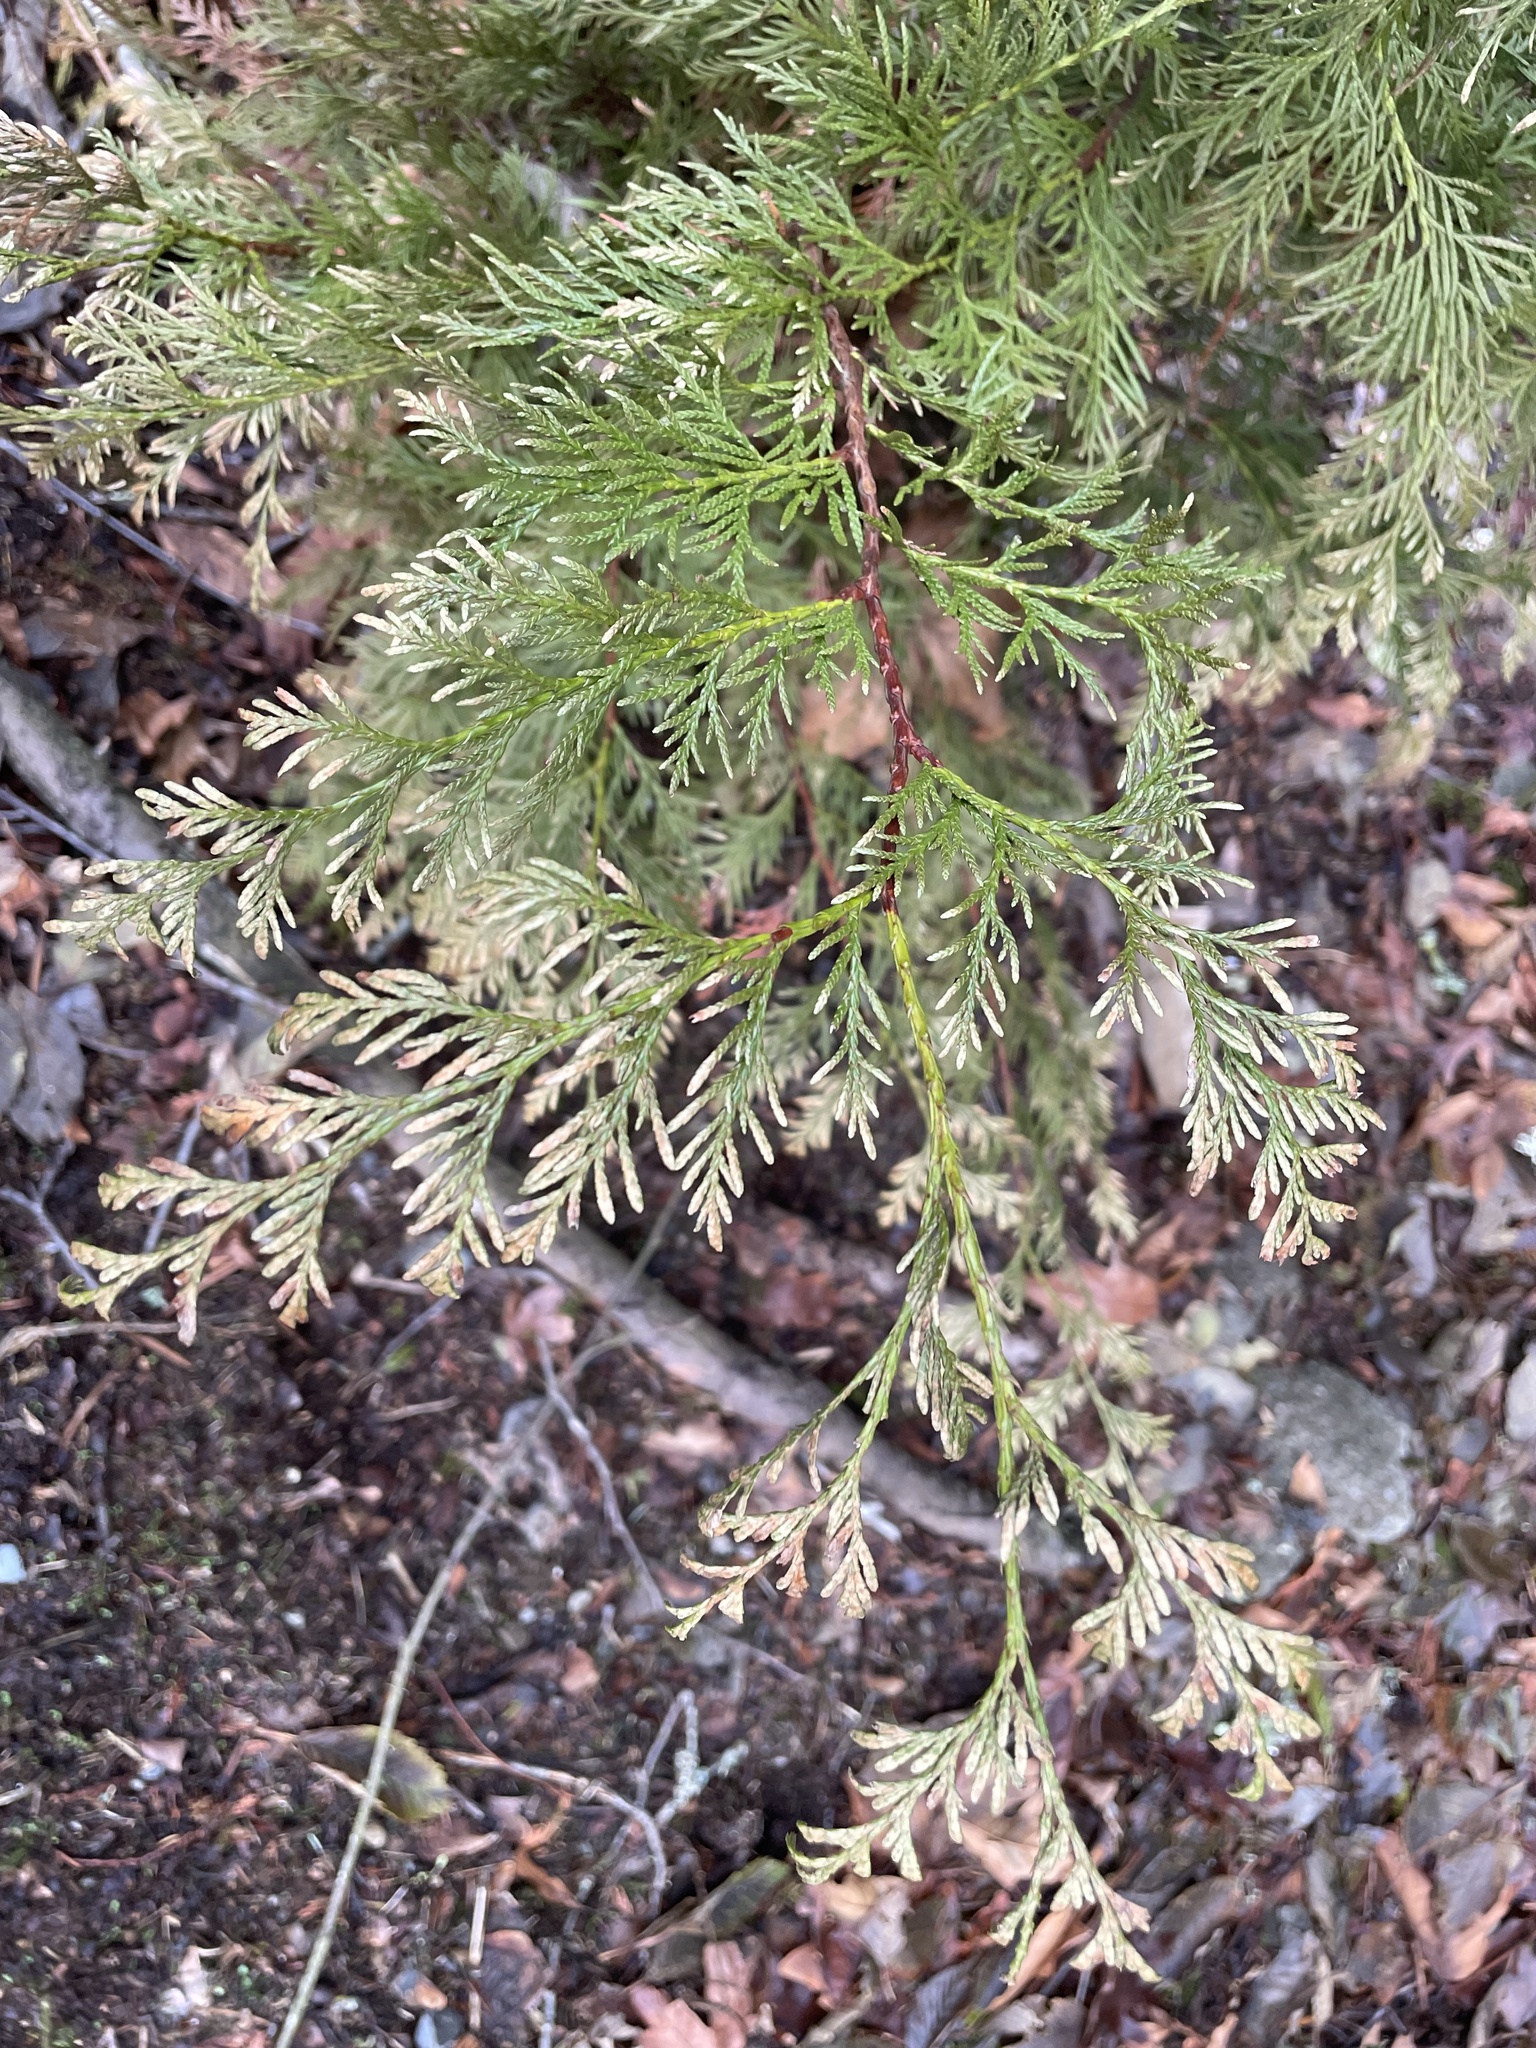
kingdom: Plantae
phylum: Tracheophyta
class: Pinopsida
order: Pinales
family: Cupressaceae
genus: Thuja
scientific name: Thuja plicata
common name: Western red-cedar
